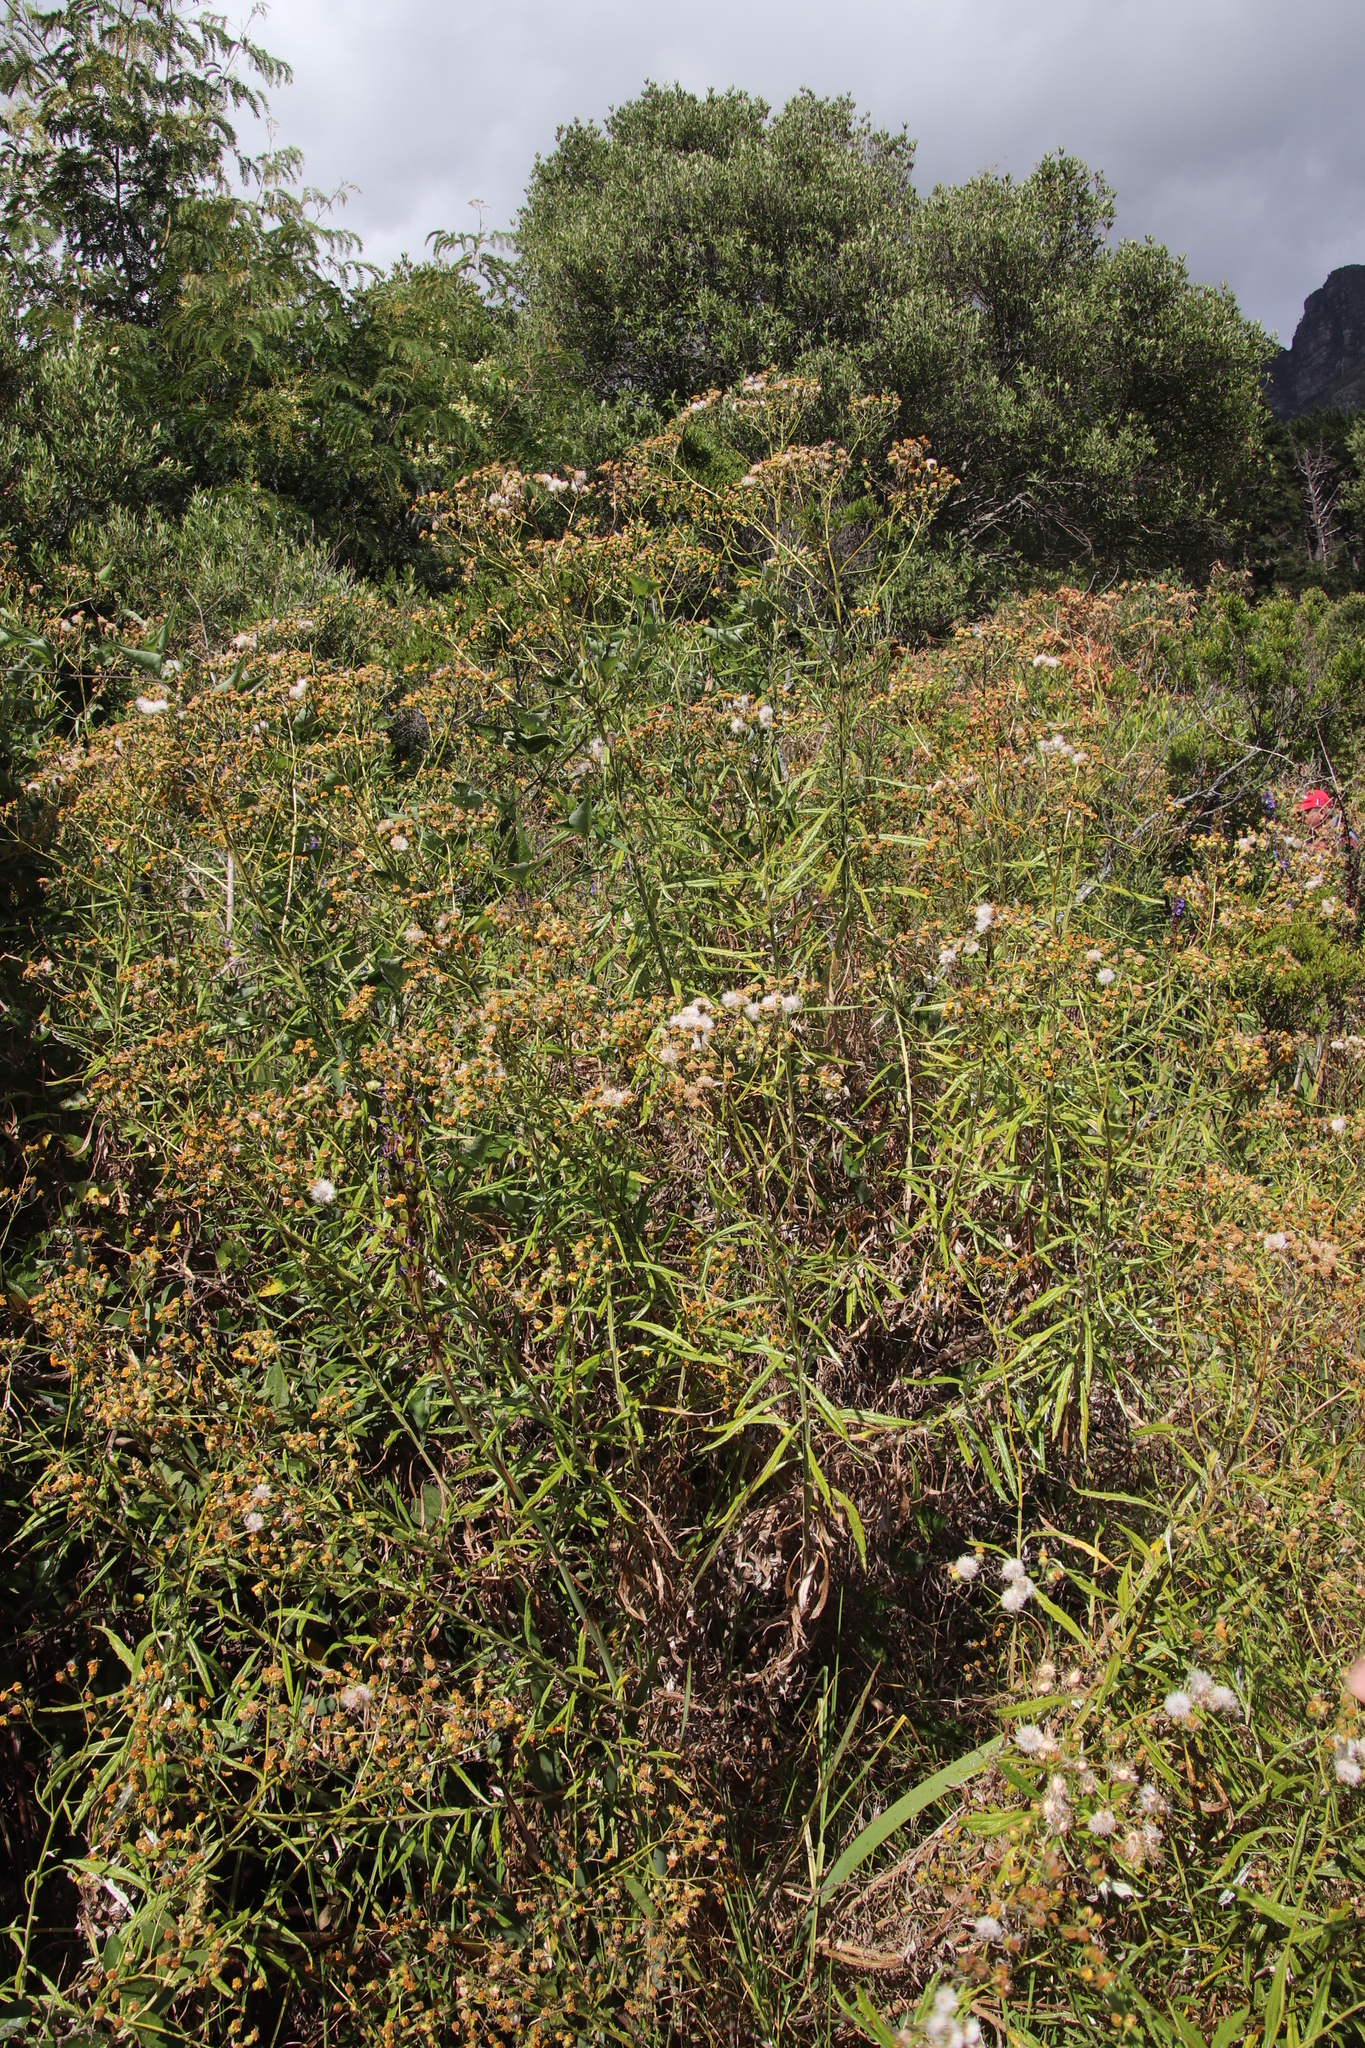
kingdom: Plantae
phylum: Tracheophyta
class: Magnoliopsida
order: Asterales
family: Asteraceae
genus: Senecio
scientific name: Senecio pterophorus
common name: Shoddy ragwort
